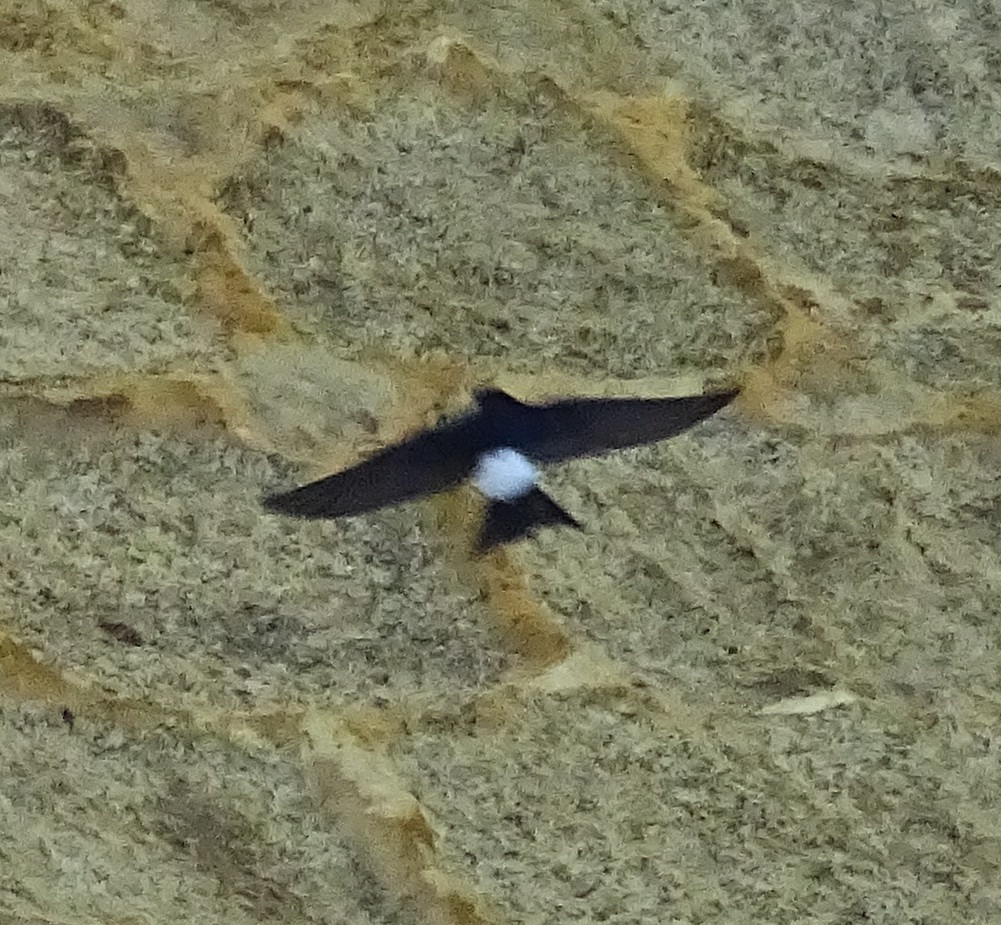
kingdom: Animalia
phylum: Chordata
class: Aves
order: Passeriformes
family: Hirundinidae
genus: Delichon
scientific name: Delichon urbicum
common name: Common house martin
